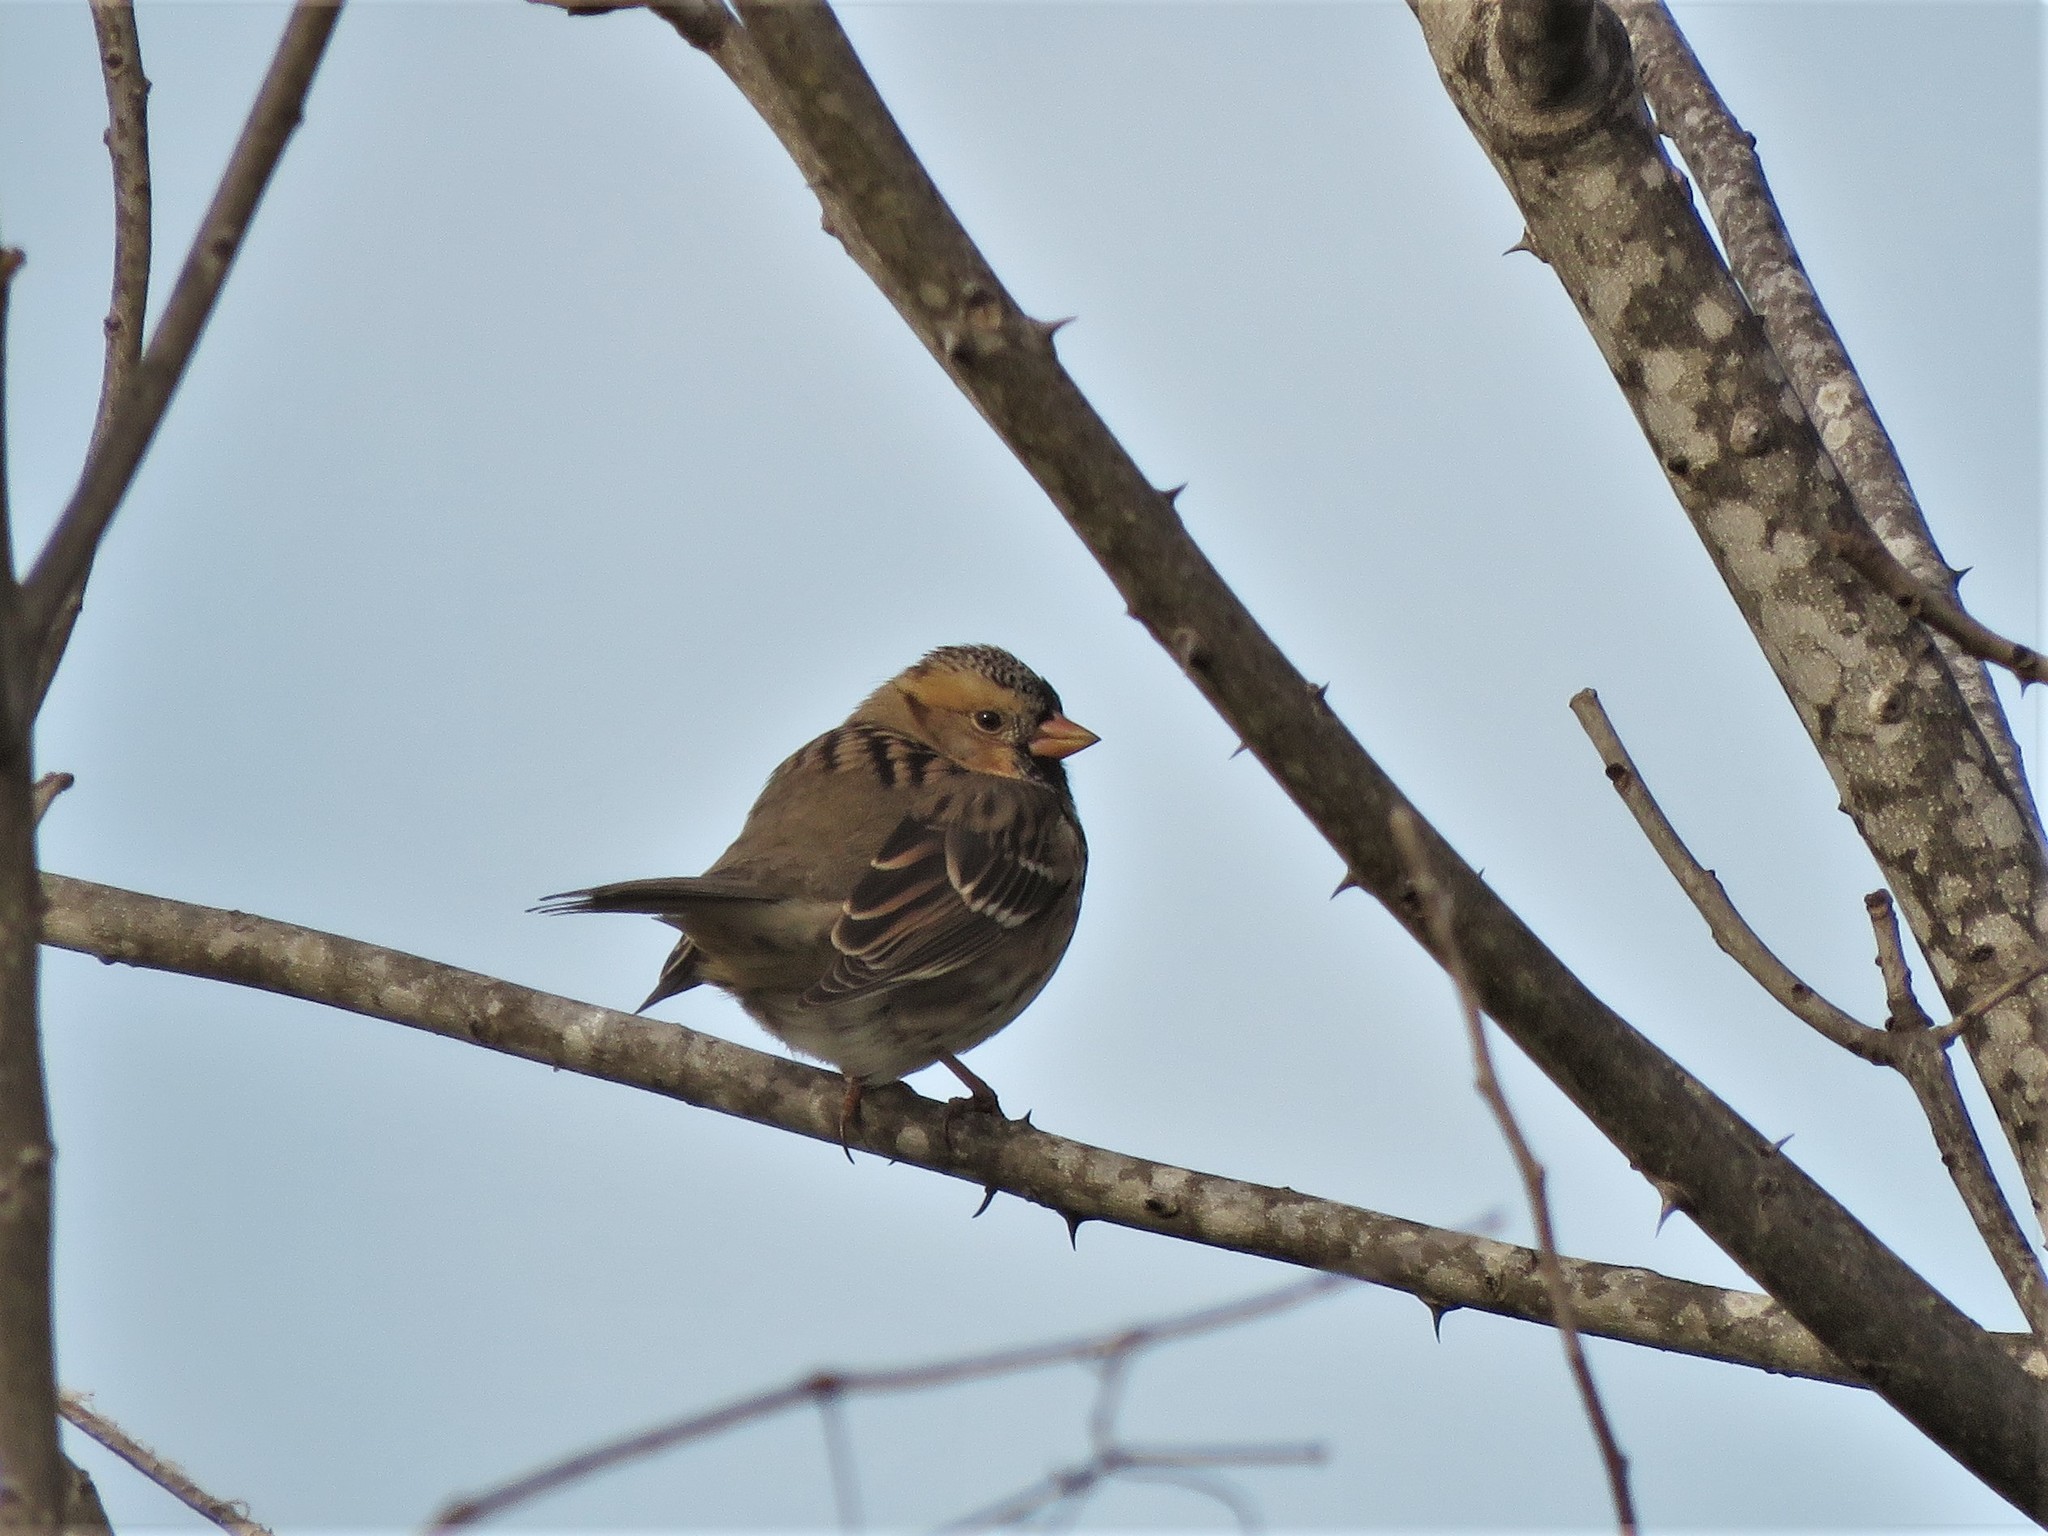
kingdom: Animalia
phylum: Chordata
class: Aves
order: Passeriformes
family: Passerellidae
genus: Zonotrichia
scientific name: Zonotrichia querula
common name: Harris's sparrow
